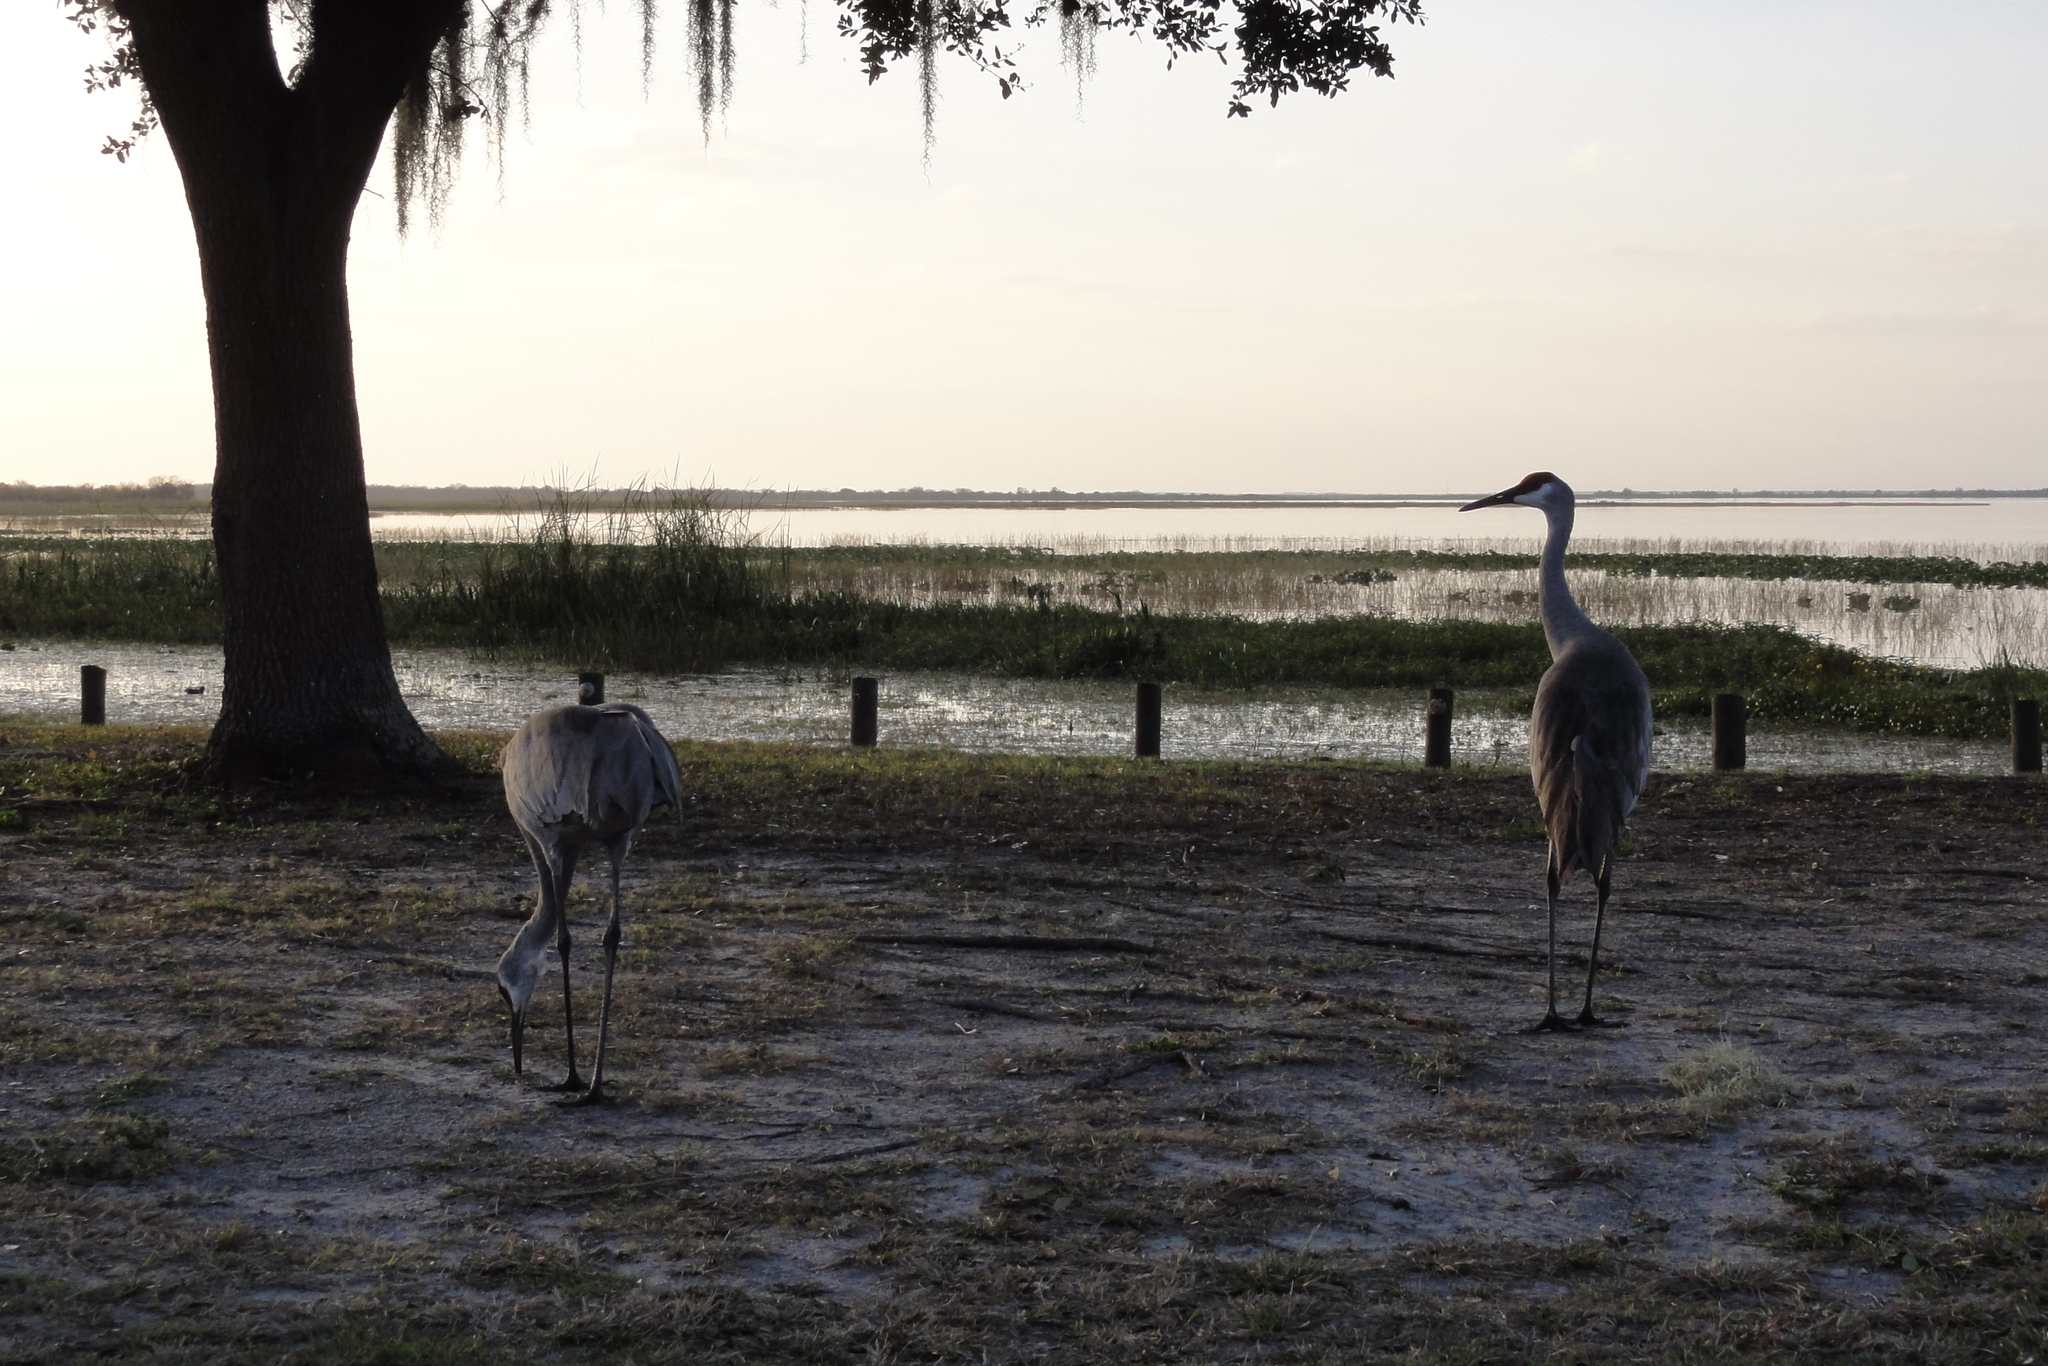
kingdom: Animalia
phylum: Chordata
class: Aves
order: Gruiformes
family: Gruidae
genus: Grus
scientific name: Grus canadensis
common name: Sandhill crane
